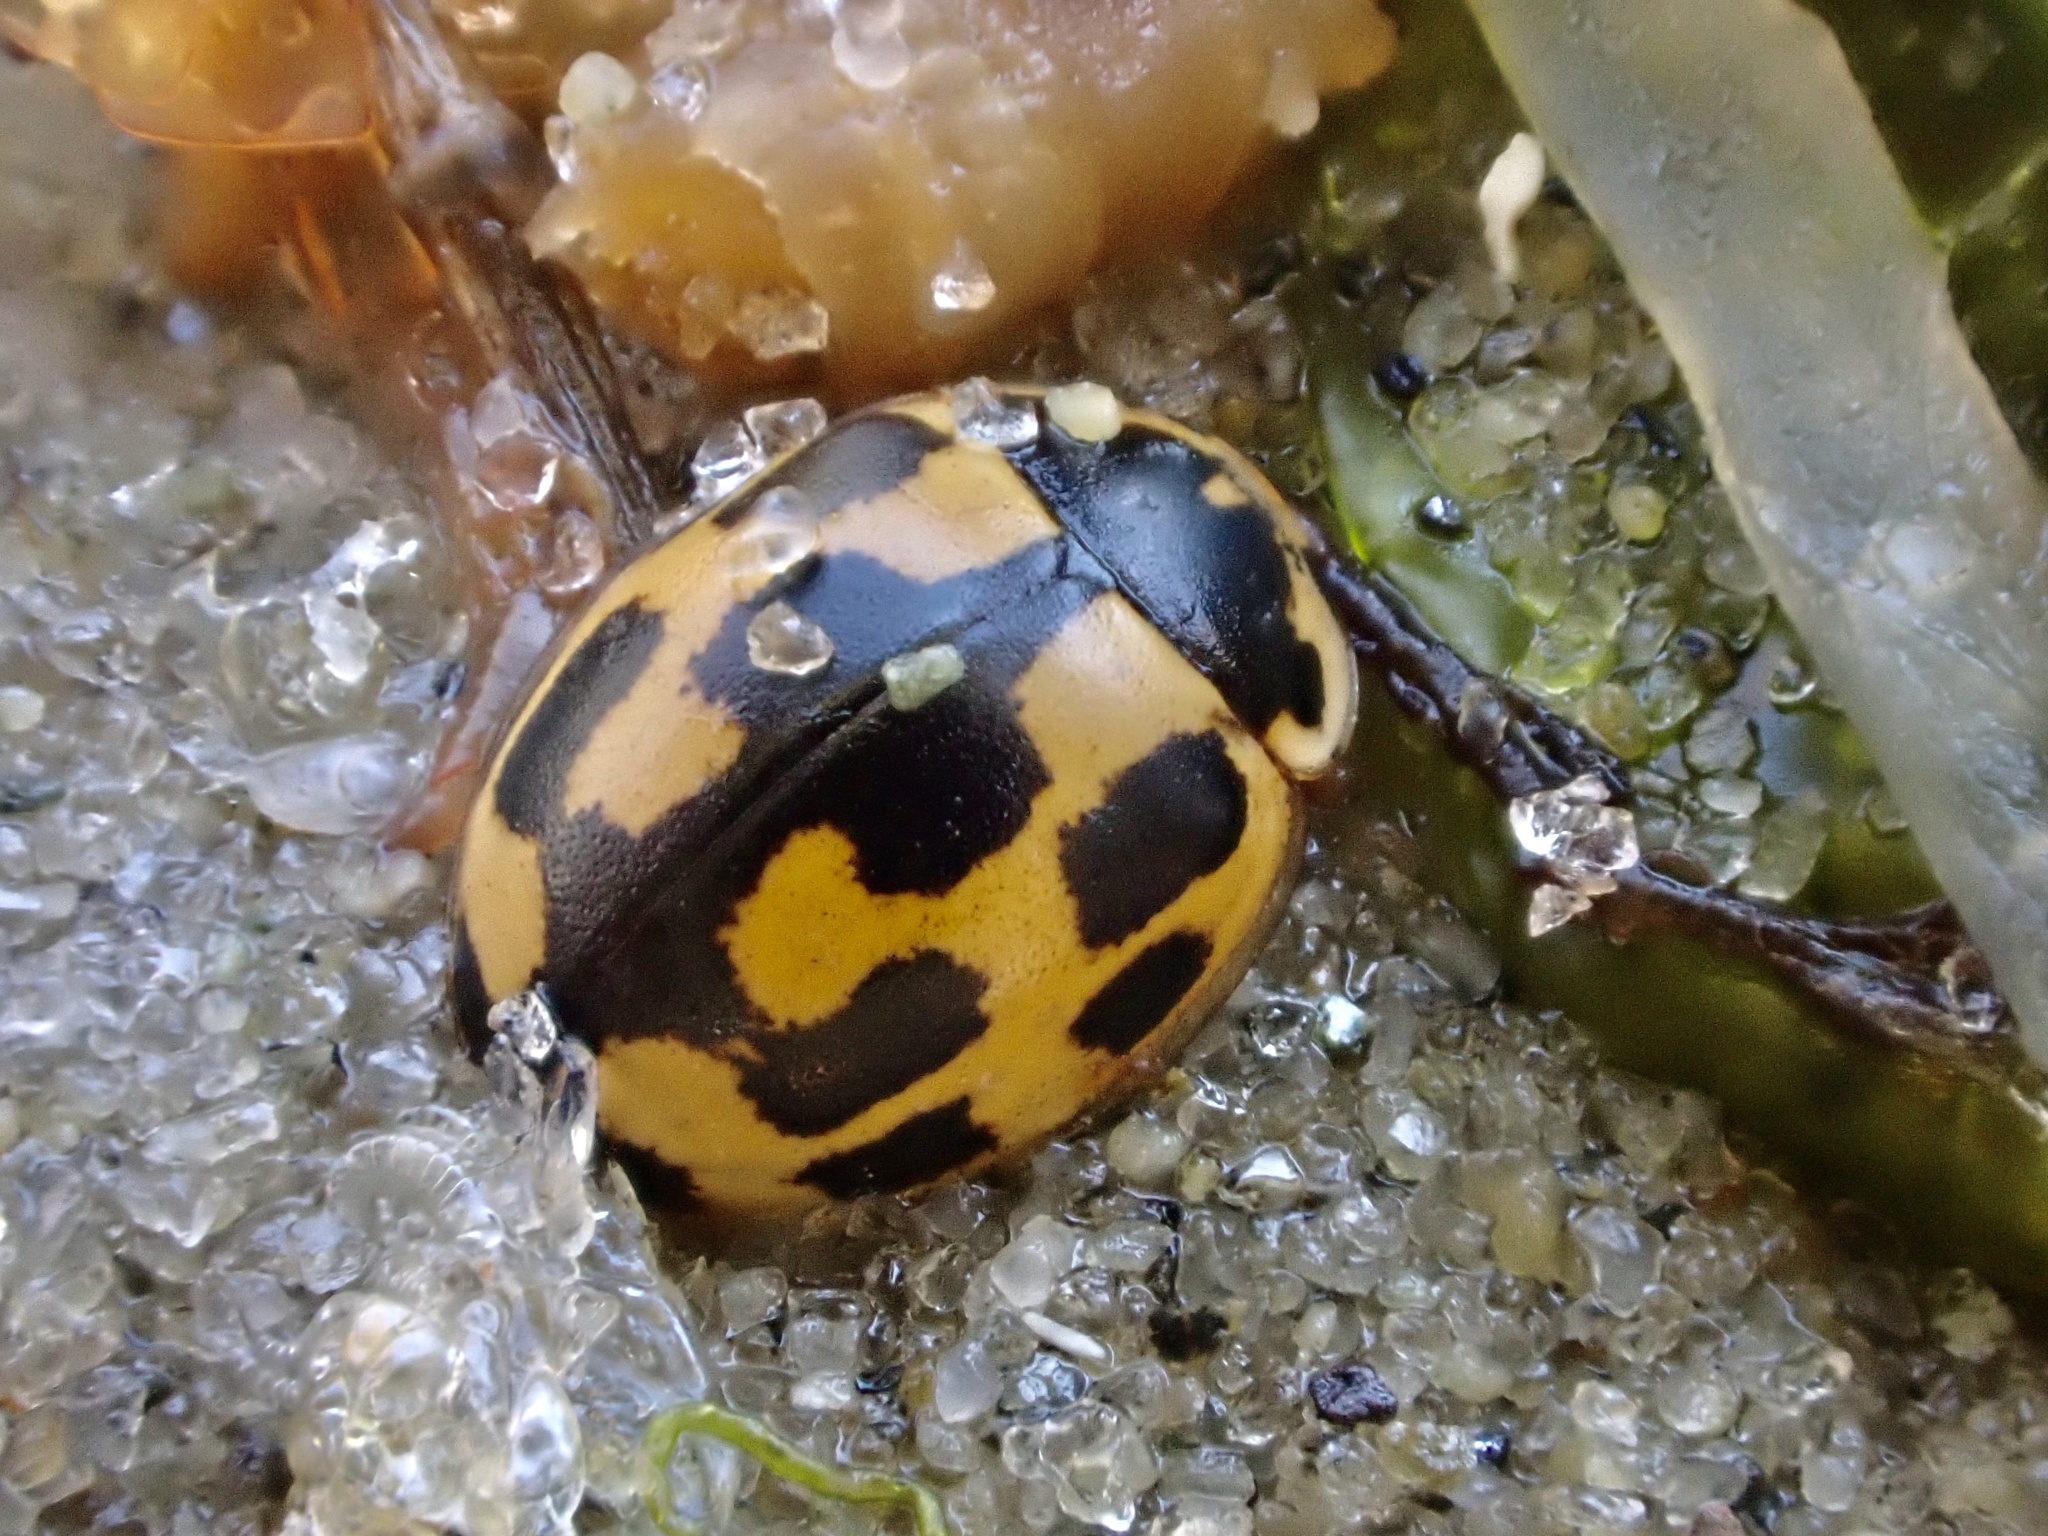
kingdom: Animalia
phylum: Arthropoda
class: Insecta
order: Coleoptera
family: Coccinellidae
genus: Propylaea
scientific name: Propylaea quatuordecimpunctata
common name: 14-spotted ladybird beetle
